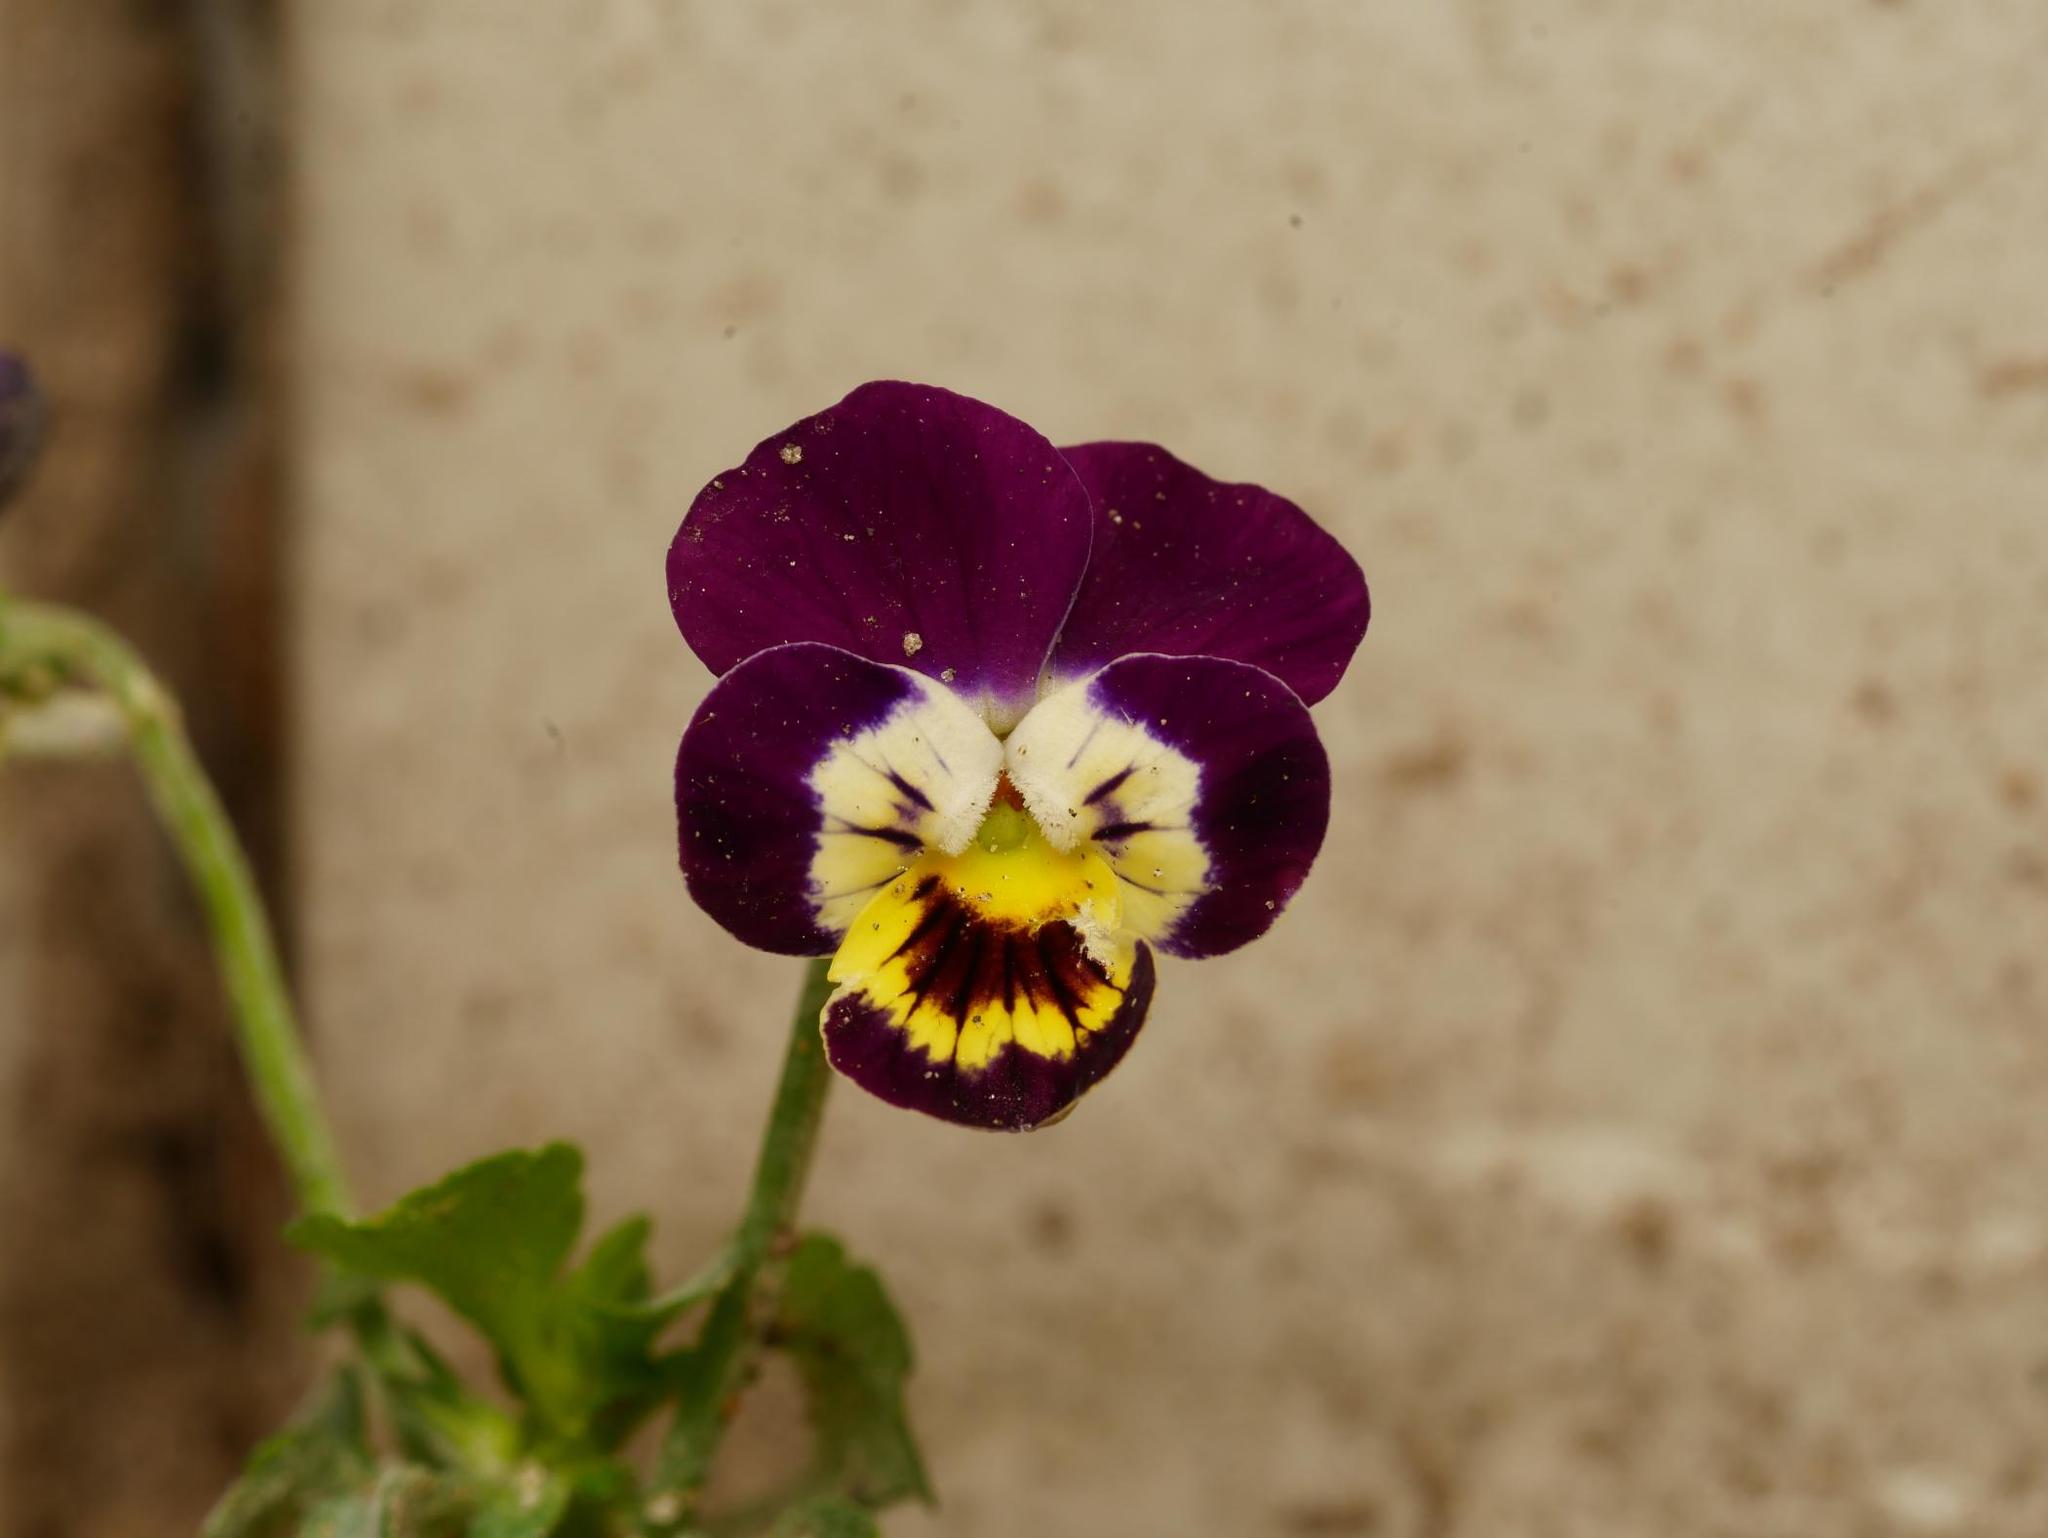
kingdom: Plantae
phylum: Tracheophyta
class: Magnoliopsida
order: Malpighiales
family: Violaceae
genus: Viola
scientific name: Viola wittrockiana
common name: Garden pansy
